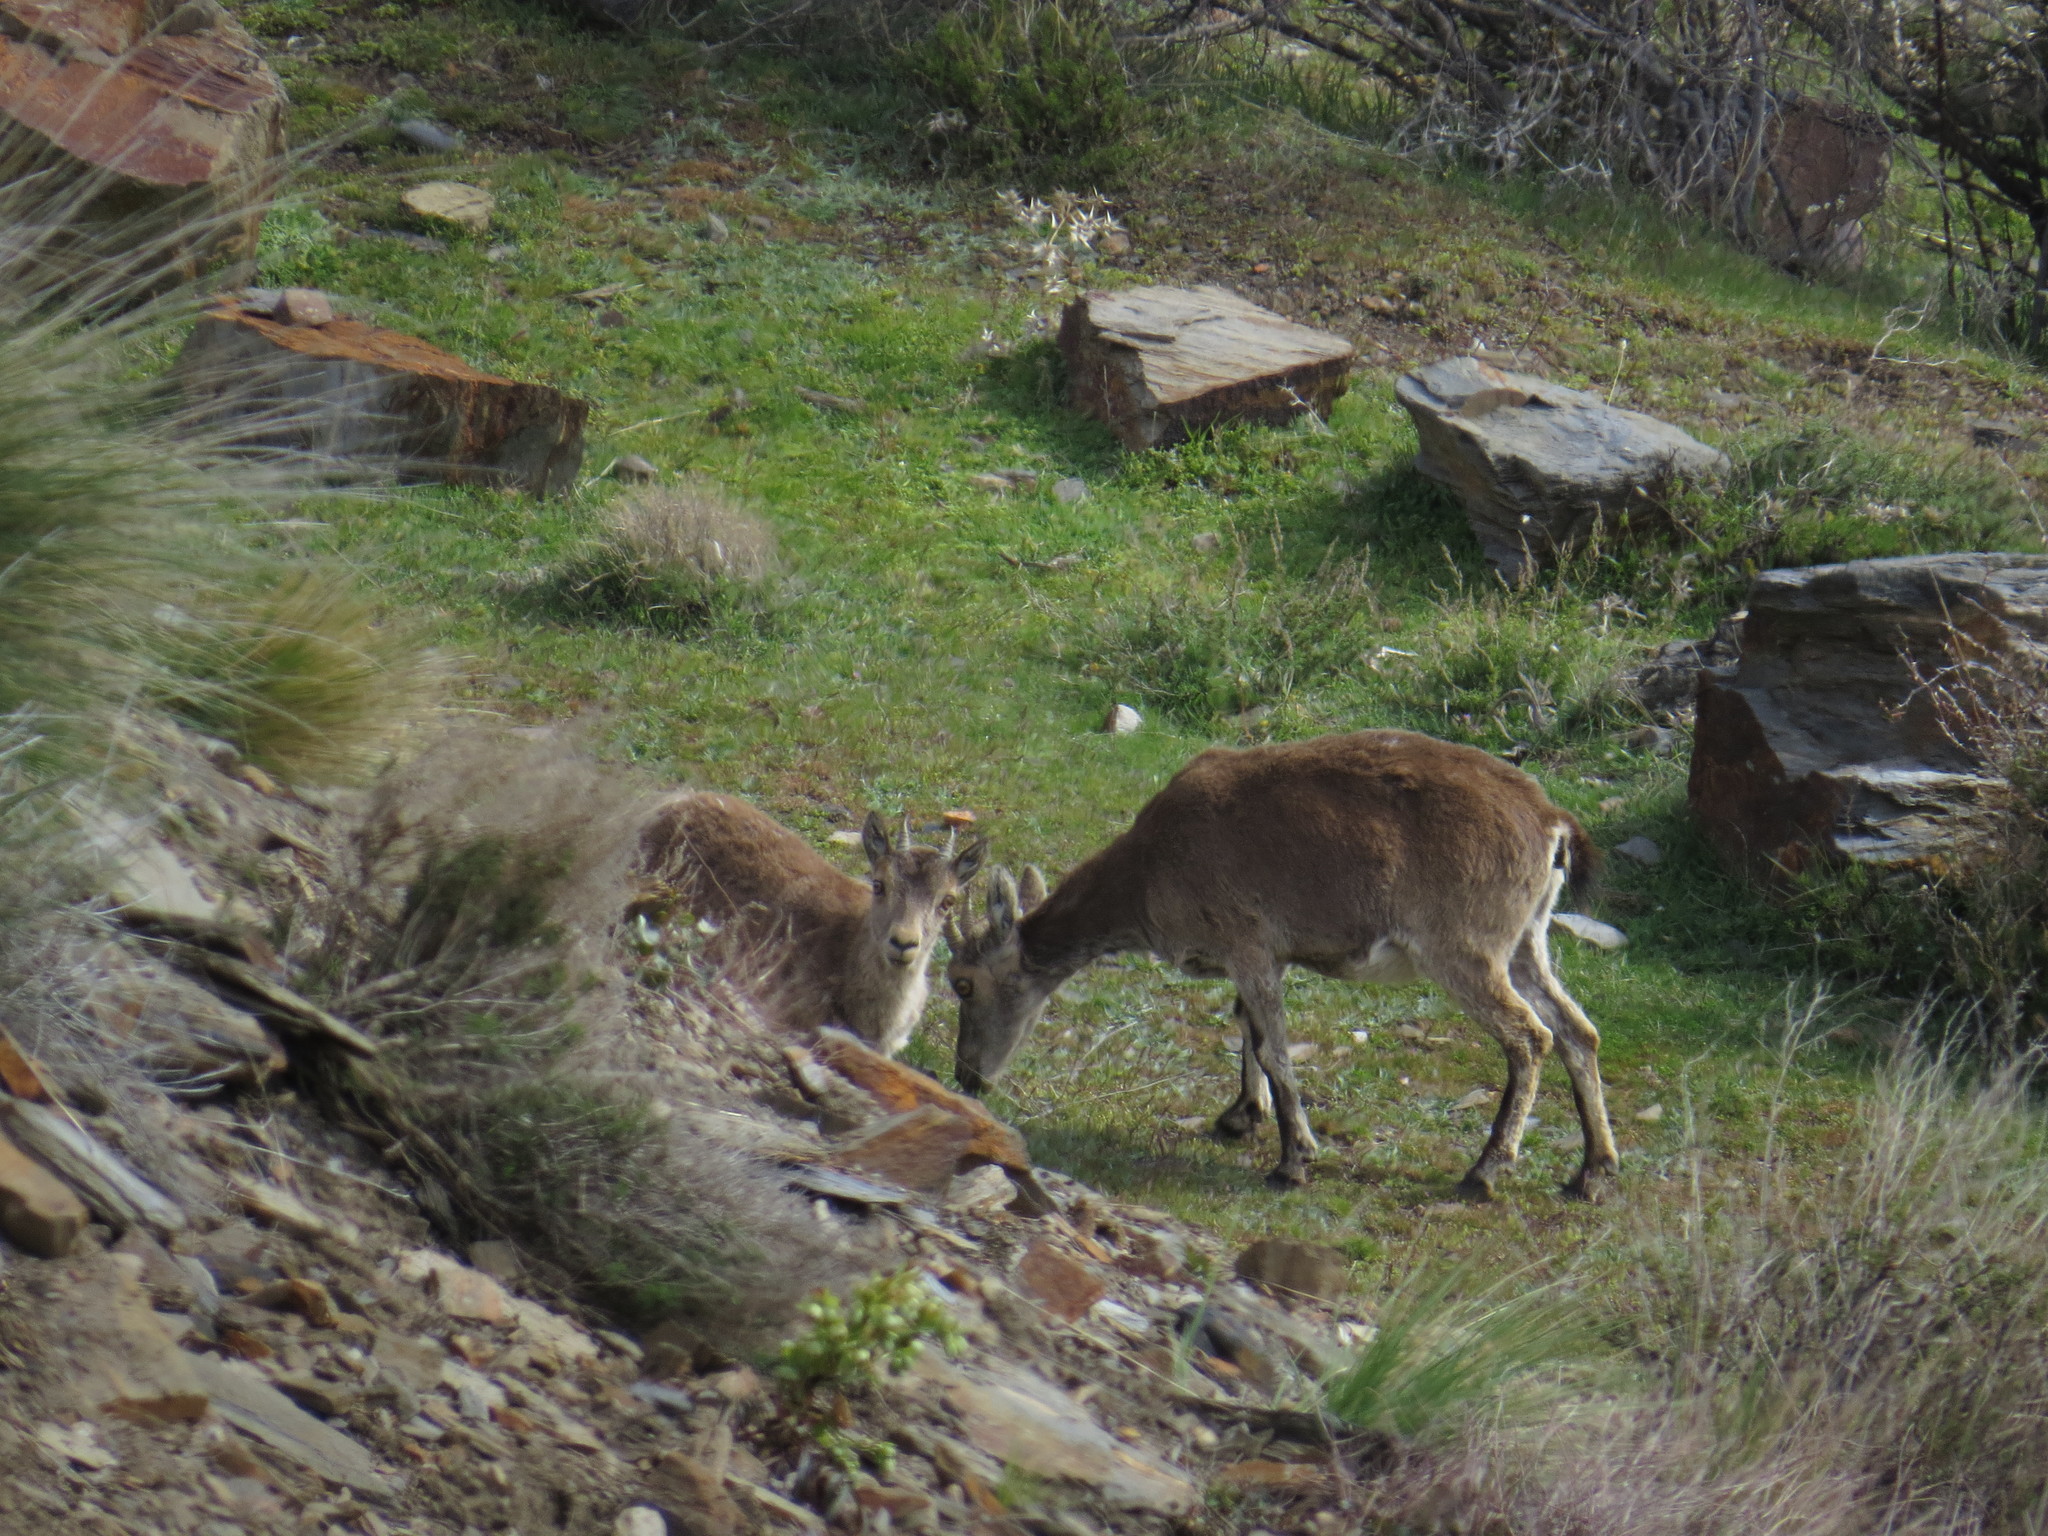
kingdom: Animalia
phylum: Chordata
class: Mammalia
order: Artiodactyla
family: Bovidae
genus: Capra
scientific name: Capra pyrenaica
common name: Spanish ibex
